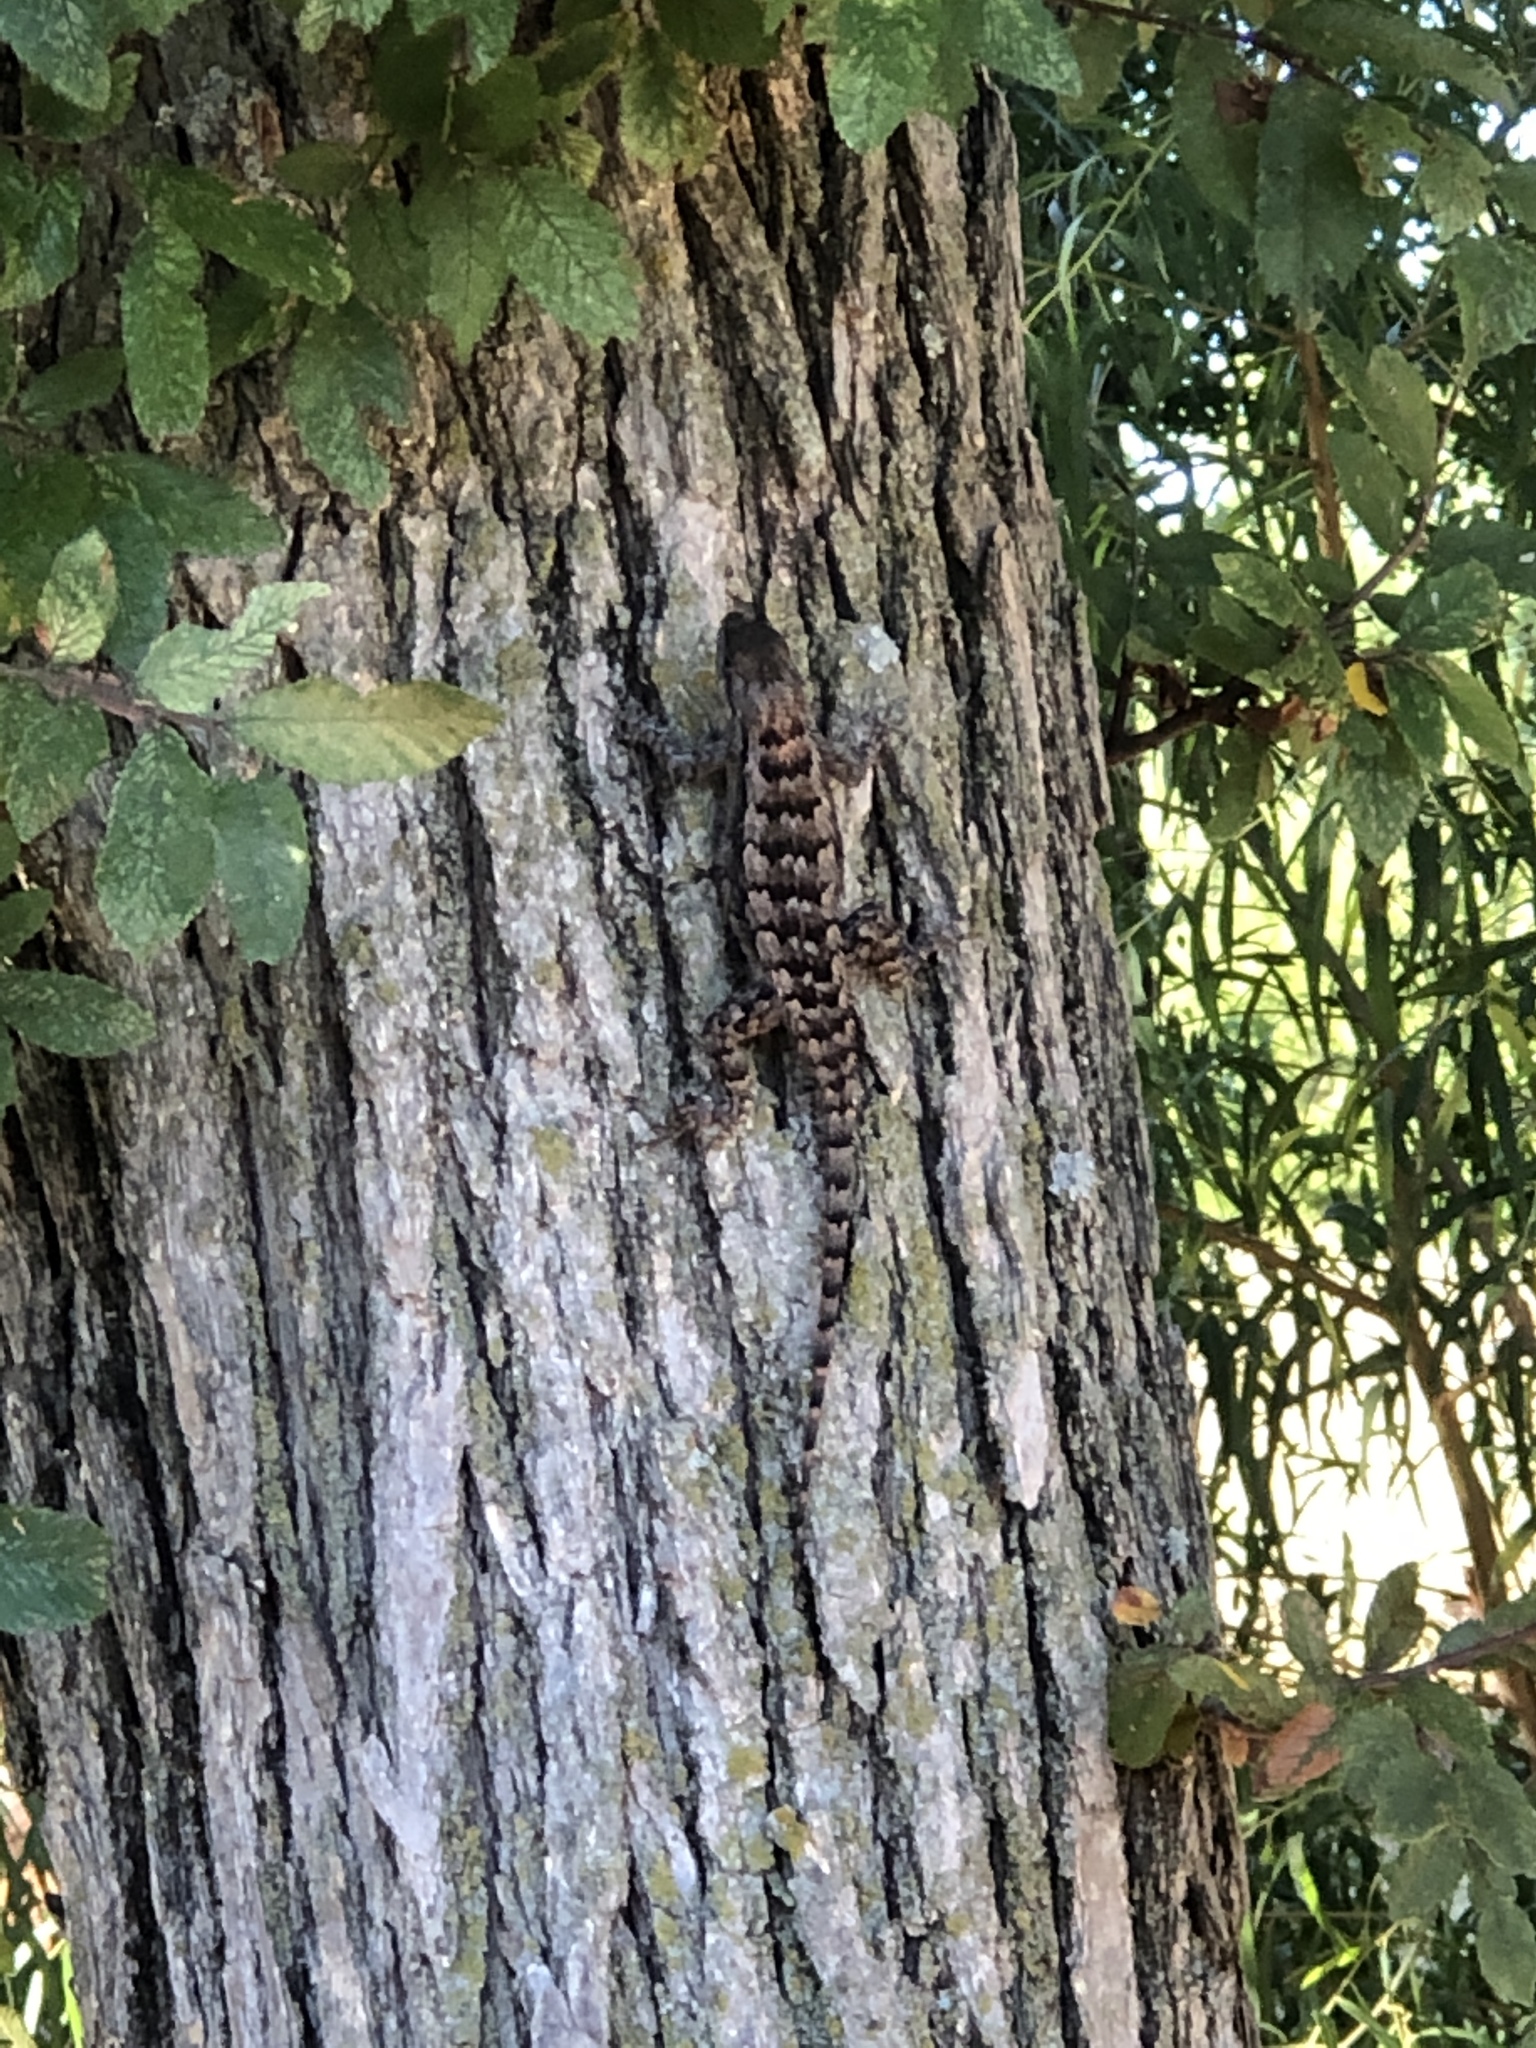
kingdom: Animalia
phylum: Chordata
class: Squamata
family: Phrynosomatidae
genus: Sceloporus
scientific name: Sceloporus olivaceus
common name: Texas spiny lizard
